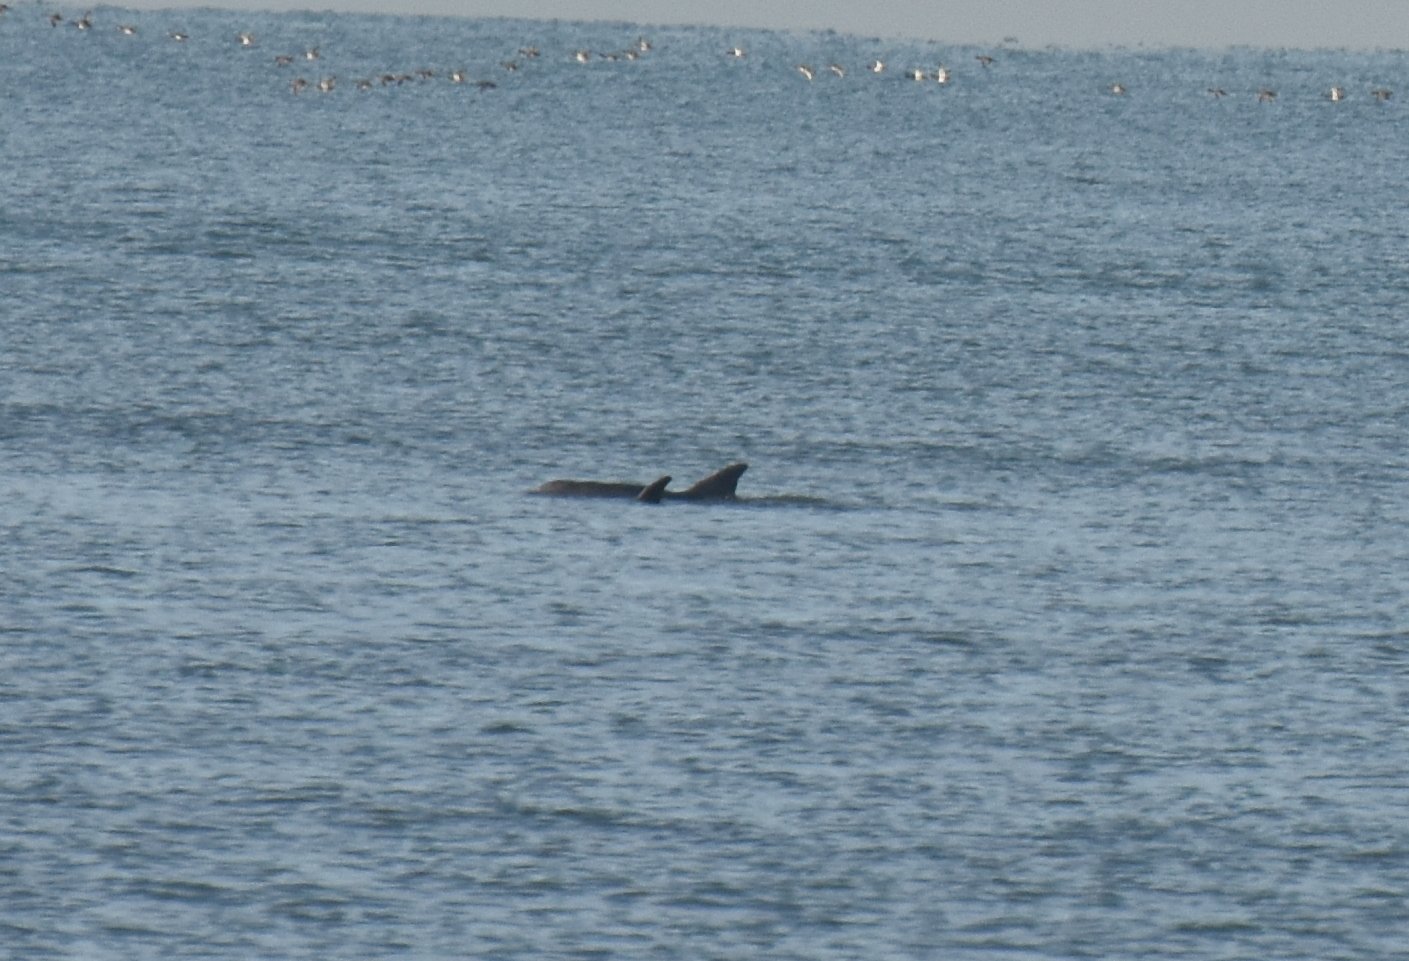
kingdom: Animalia
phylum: Chordata
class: Mammalia
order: Cetacea
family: Delphinidae
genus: Tursiops
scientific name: Tursiops truncatus
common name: Bottlenose dolphin
